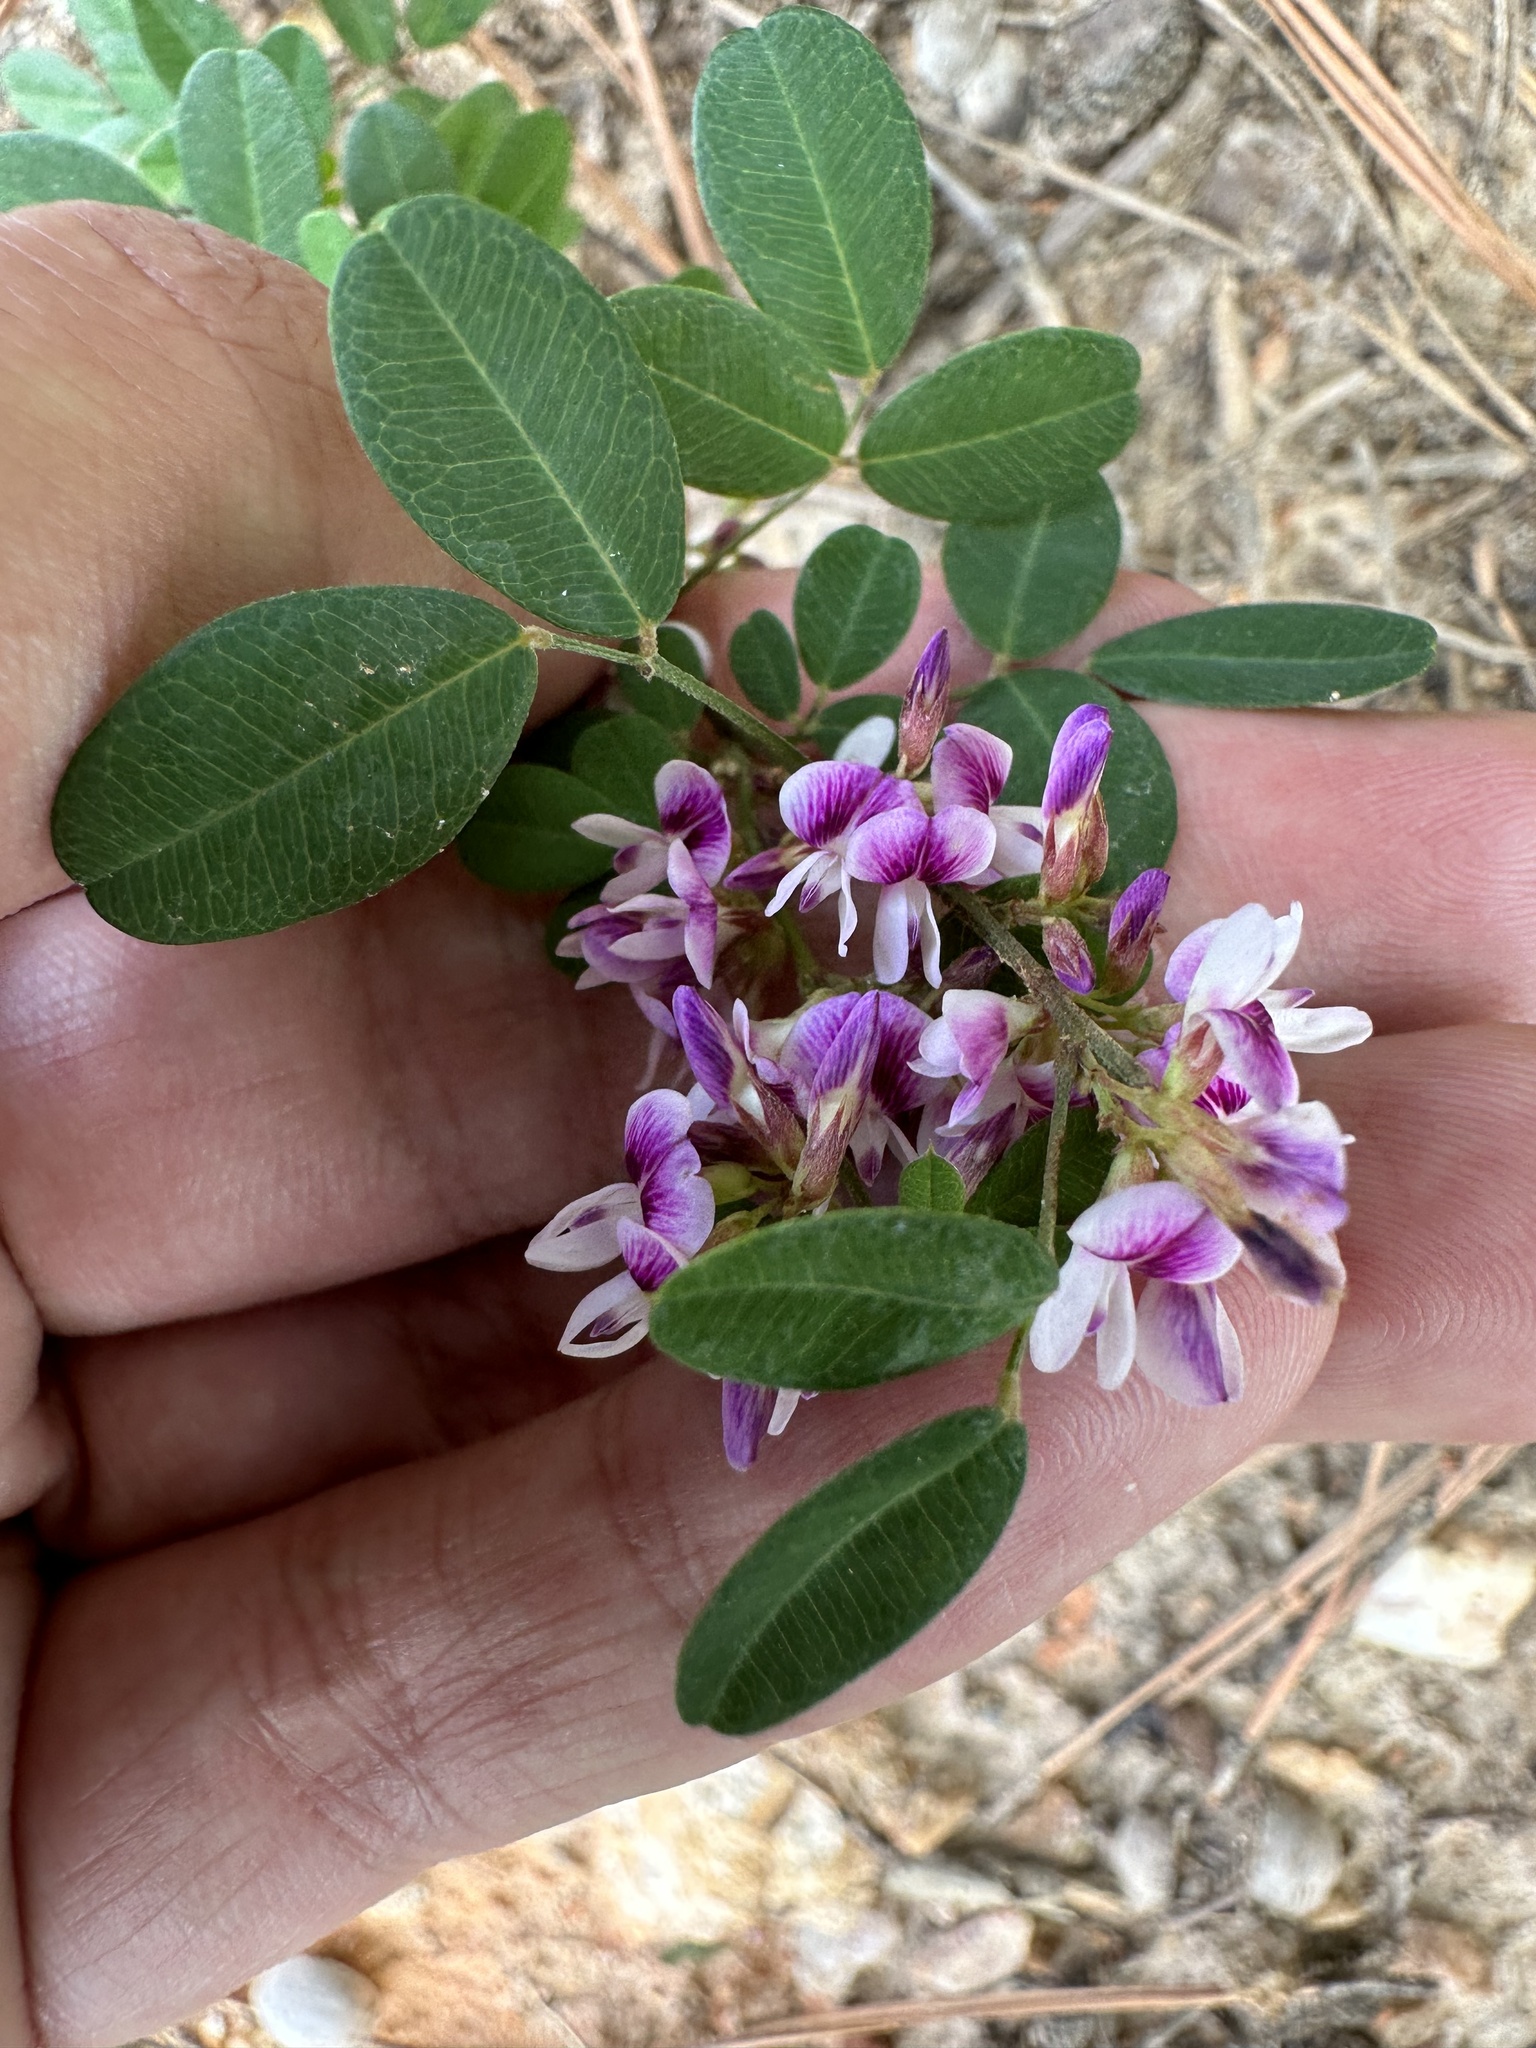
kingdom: Plantae
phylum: Tracheophyta
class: Magnoliopsida
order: Fabales
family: Fabaceae
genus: Lespedeza
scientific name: Lespedeza violacea
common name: Wand bush-clover
